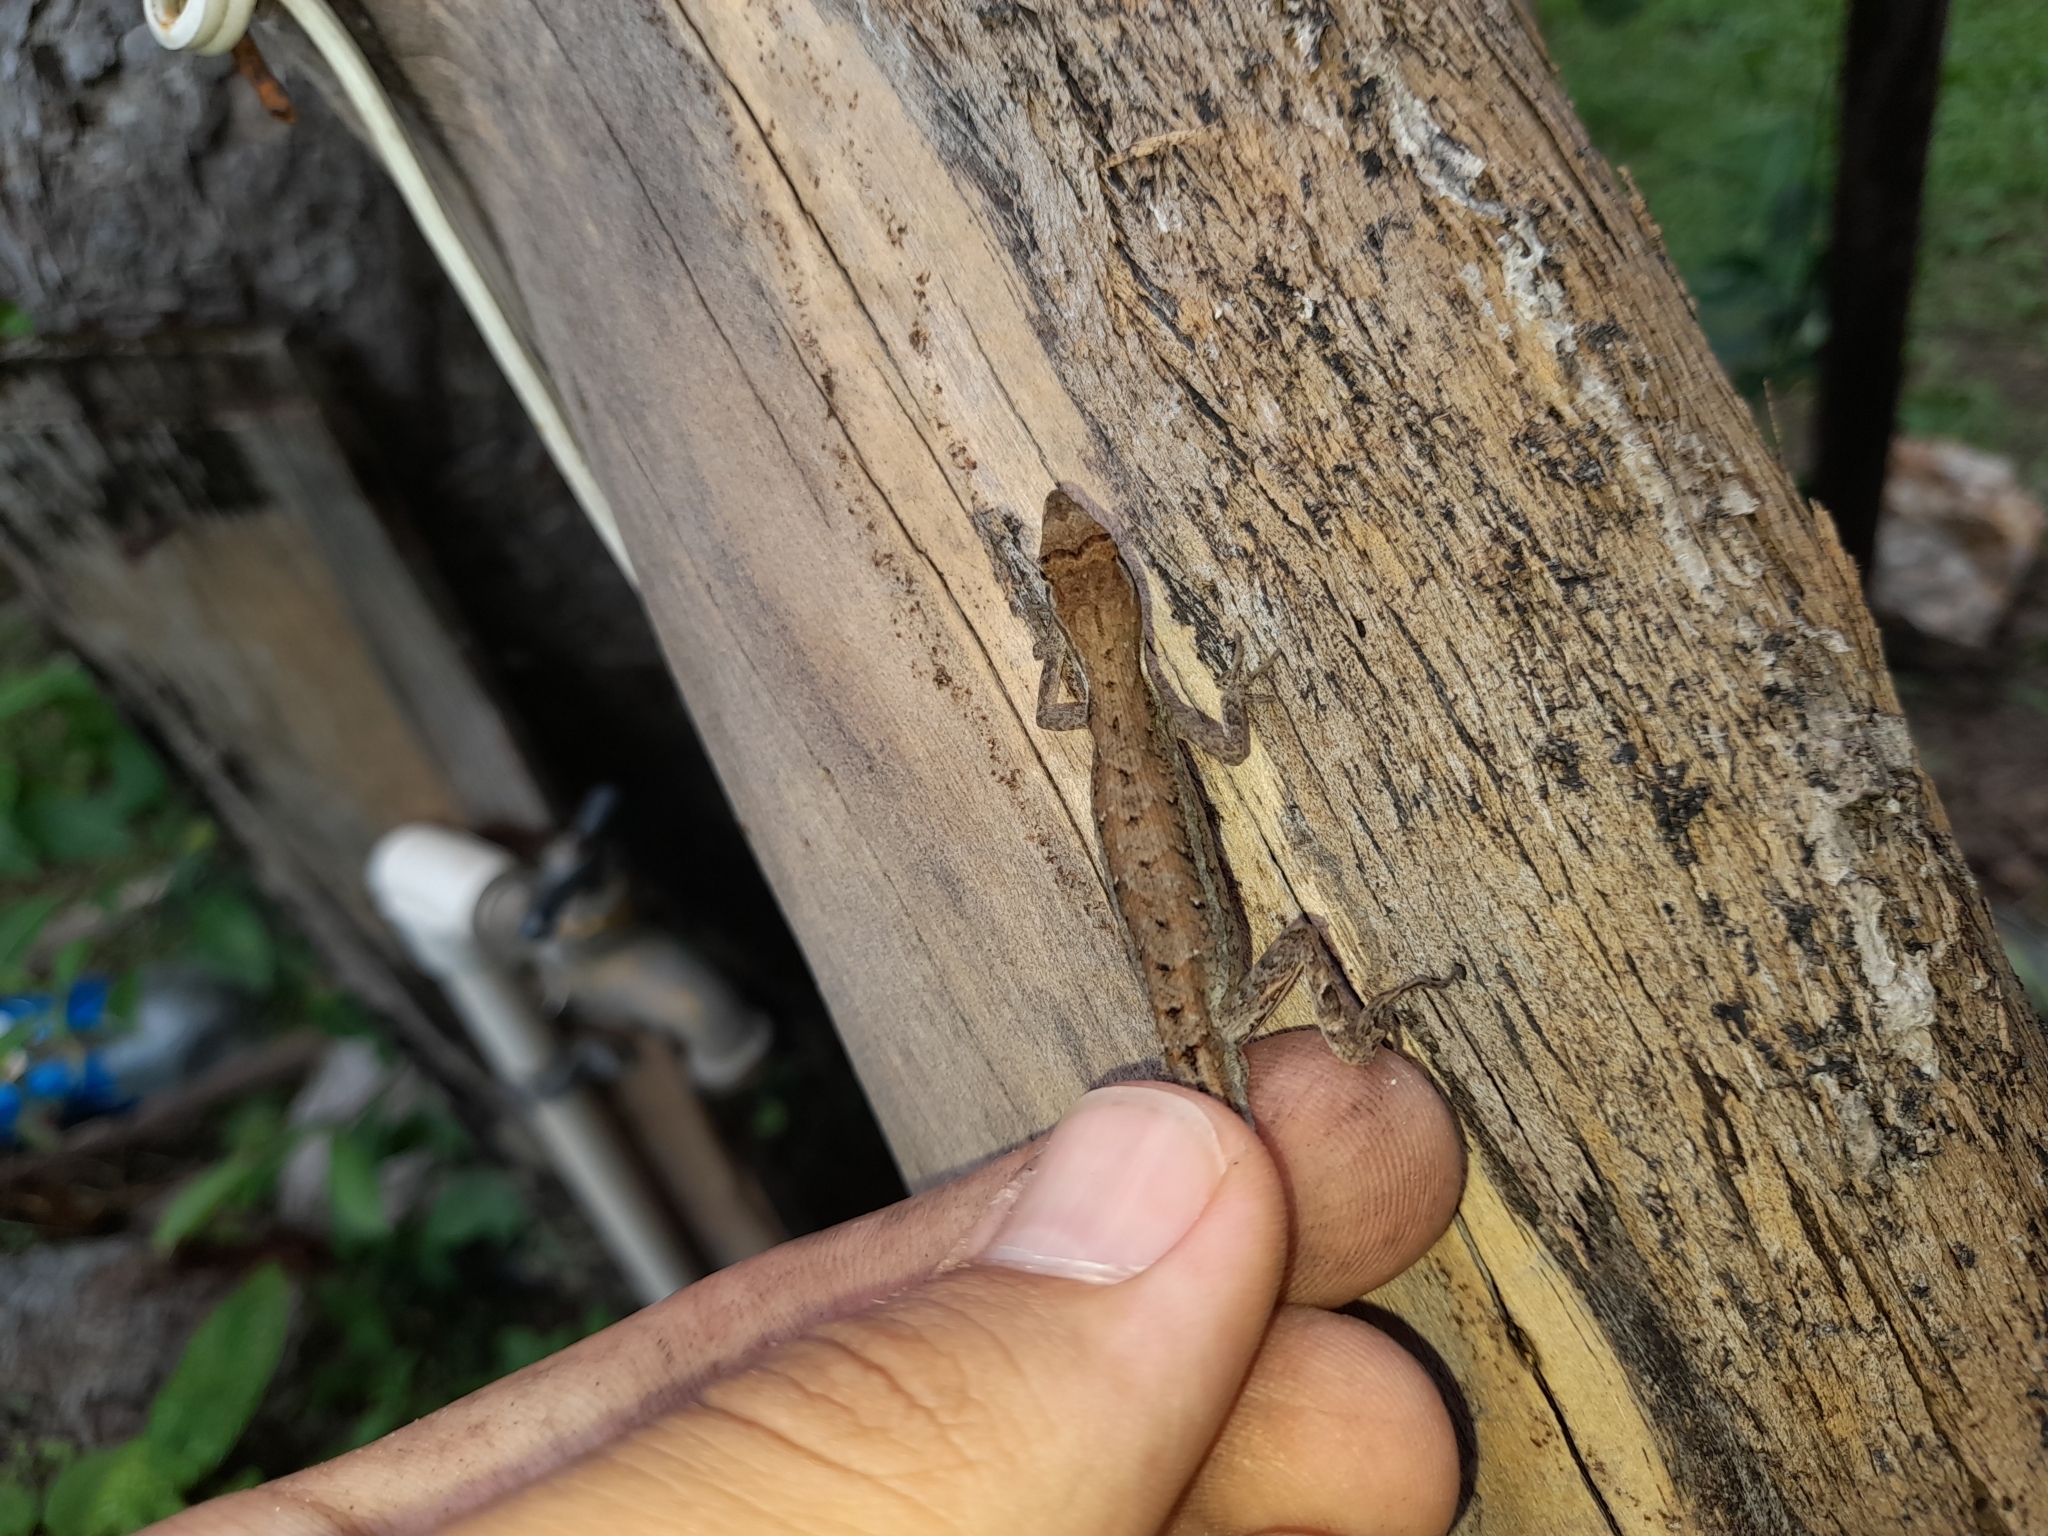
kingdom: Animalia
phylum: Chordata
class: Squamata
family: Dactyloidae
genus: Anolis
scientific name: Anolis auratus
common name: Grass anole
